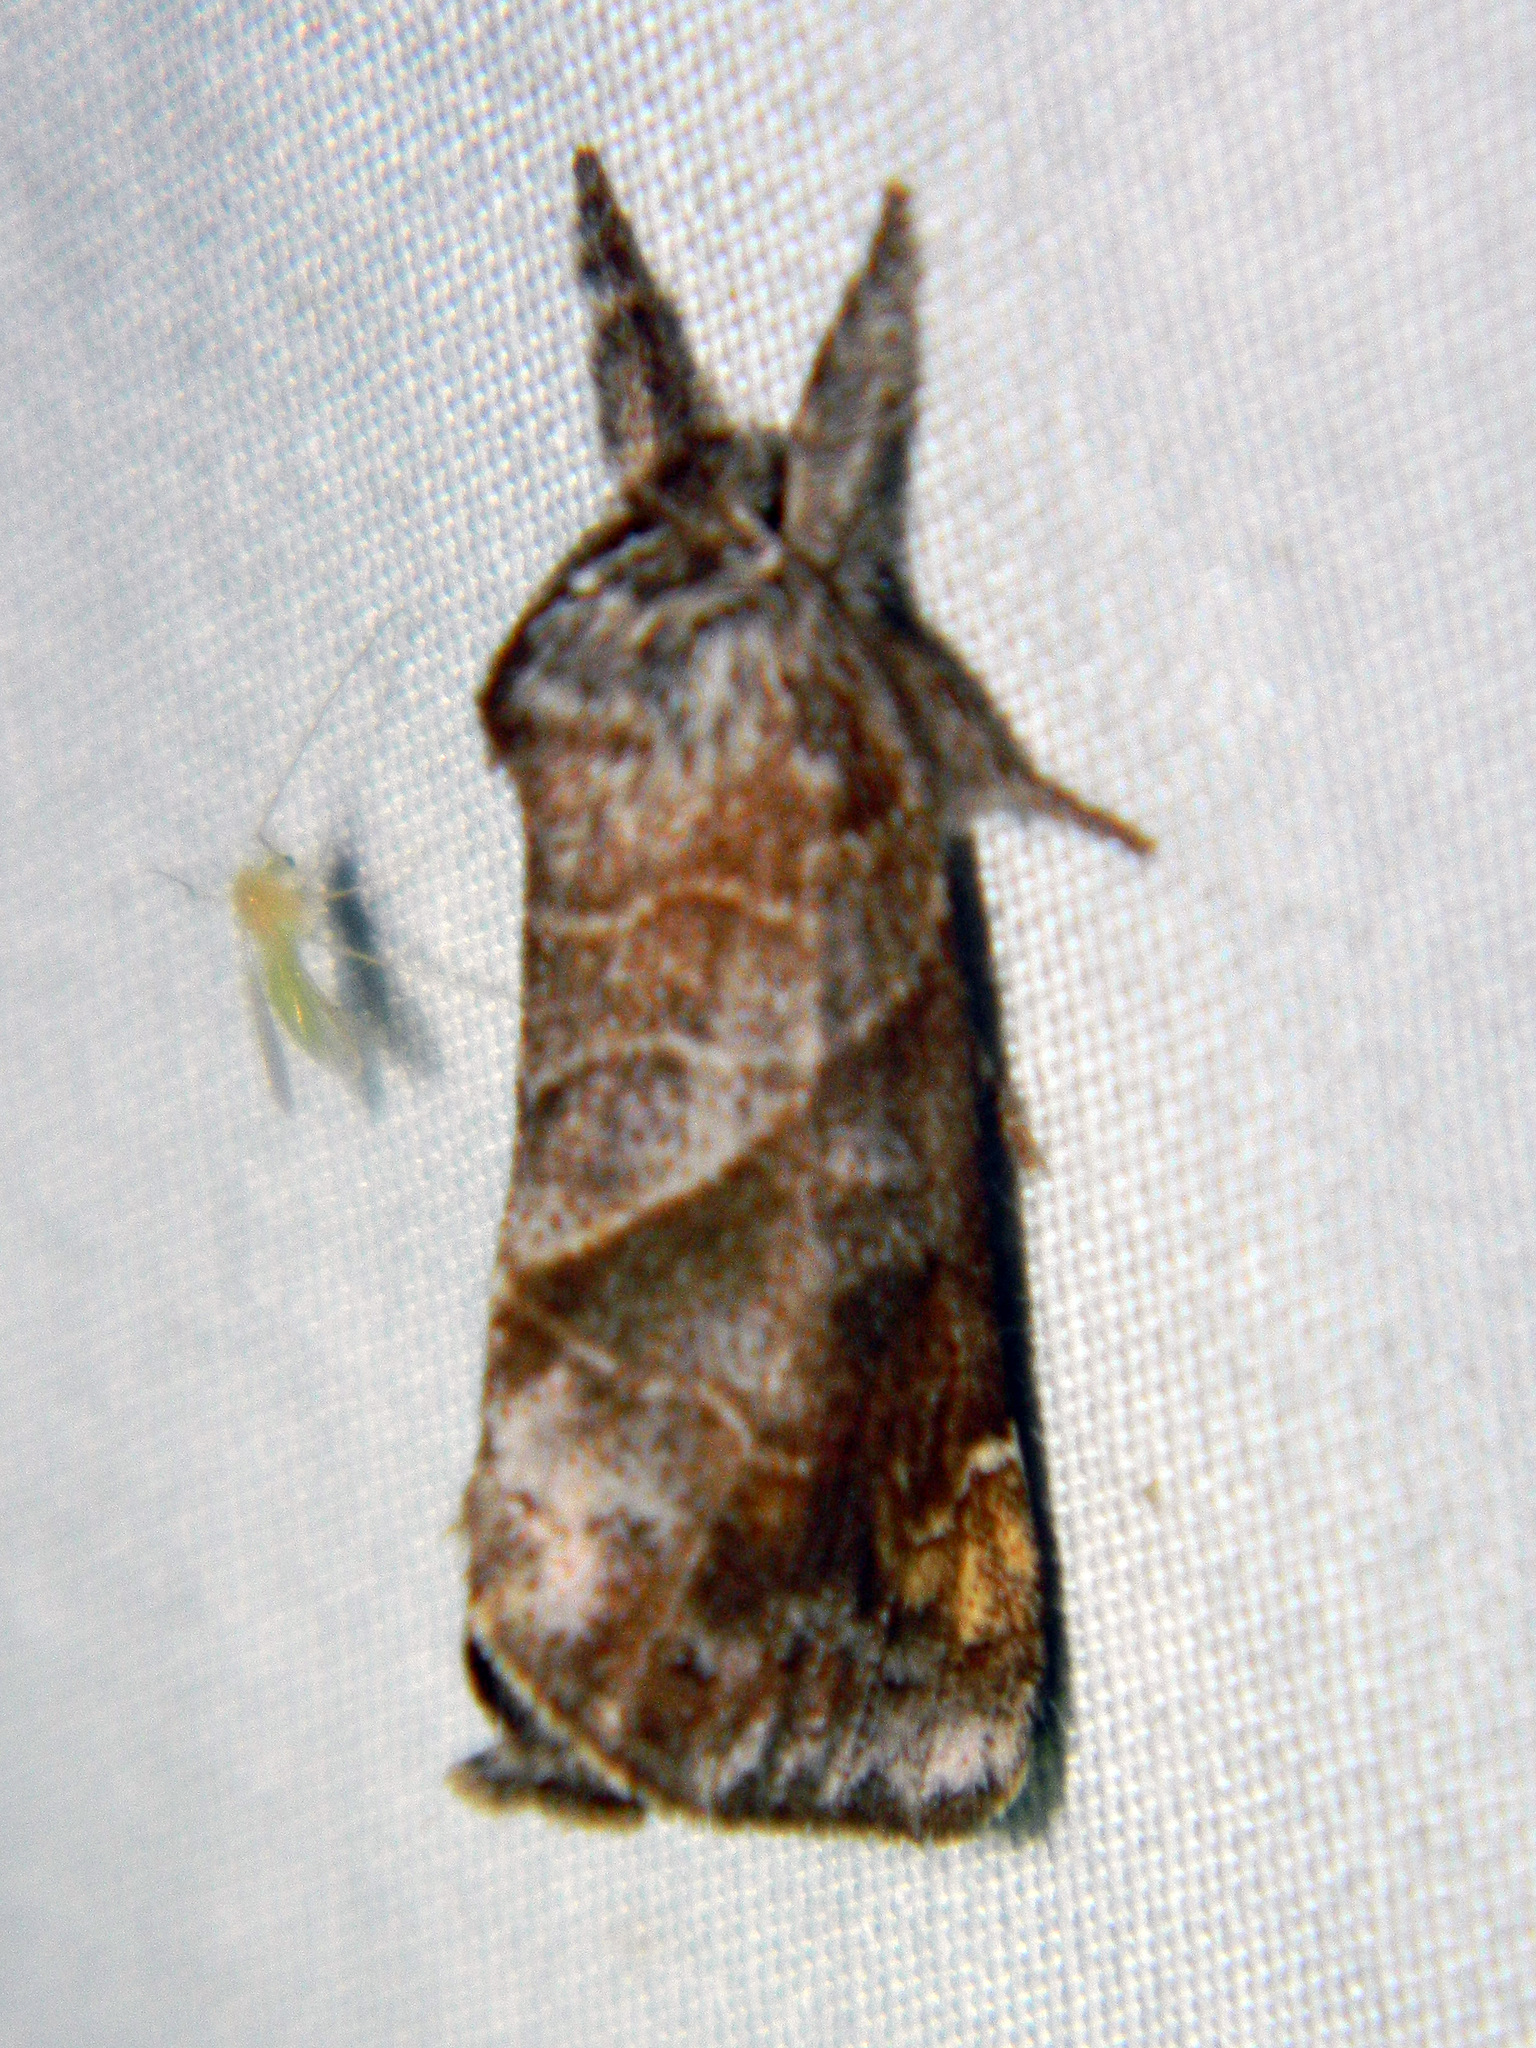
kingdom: Animalia
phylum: Arthropoda
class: Insecta
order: Lepidoptera
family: Notodontidae
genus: Clostera
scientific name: Clostera apicalis
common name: Apical prominent
